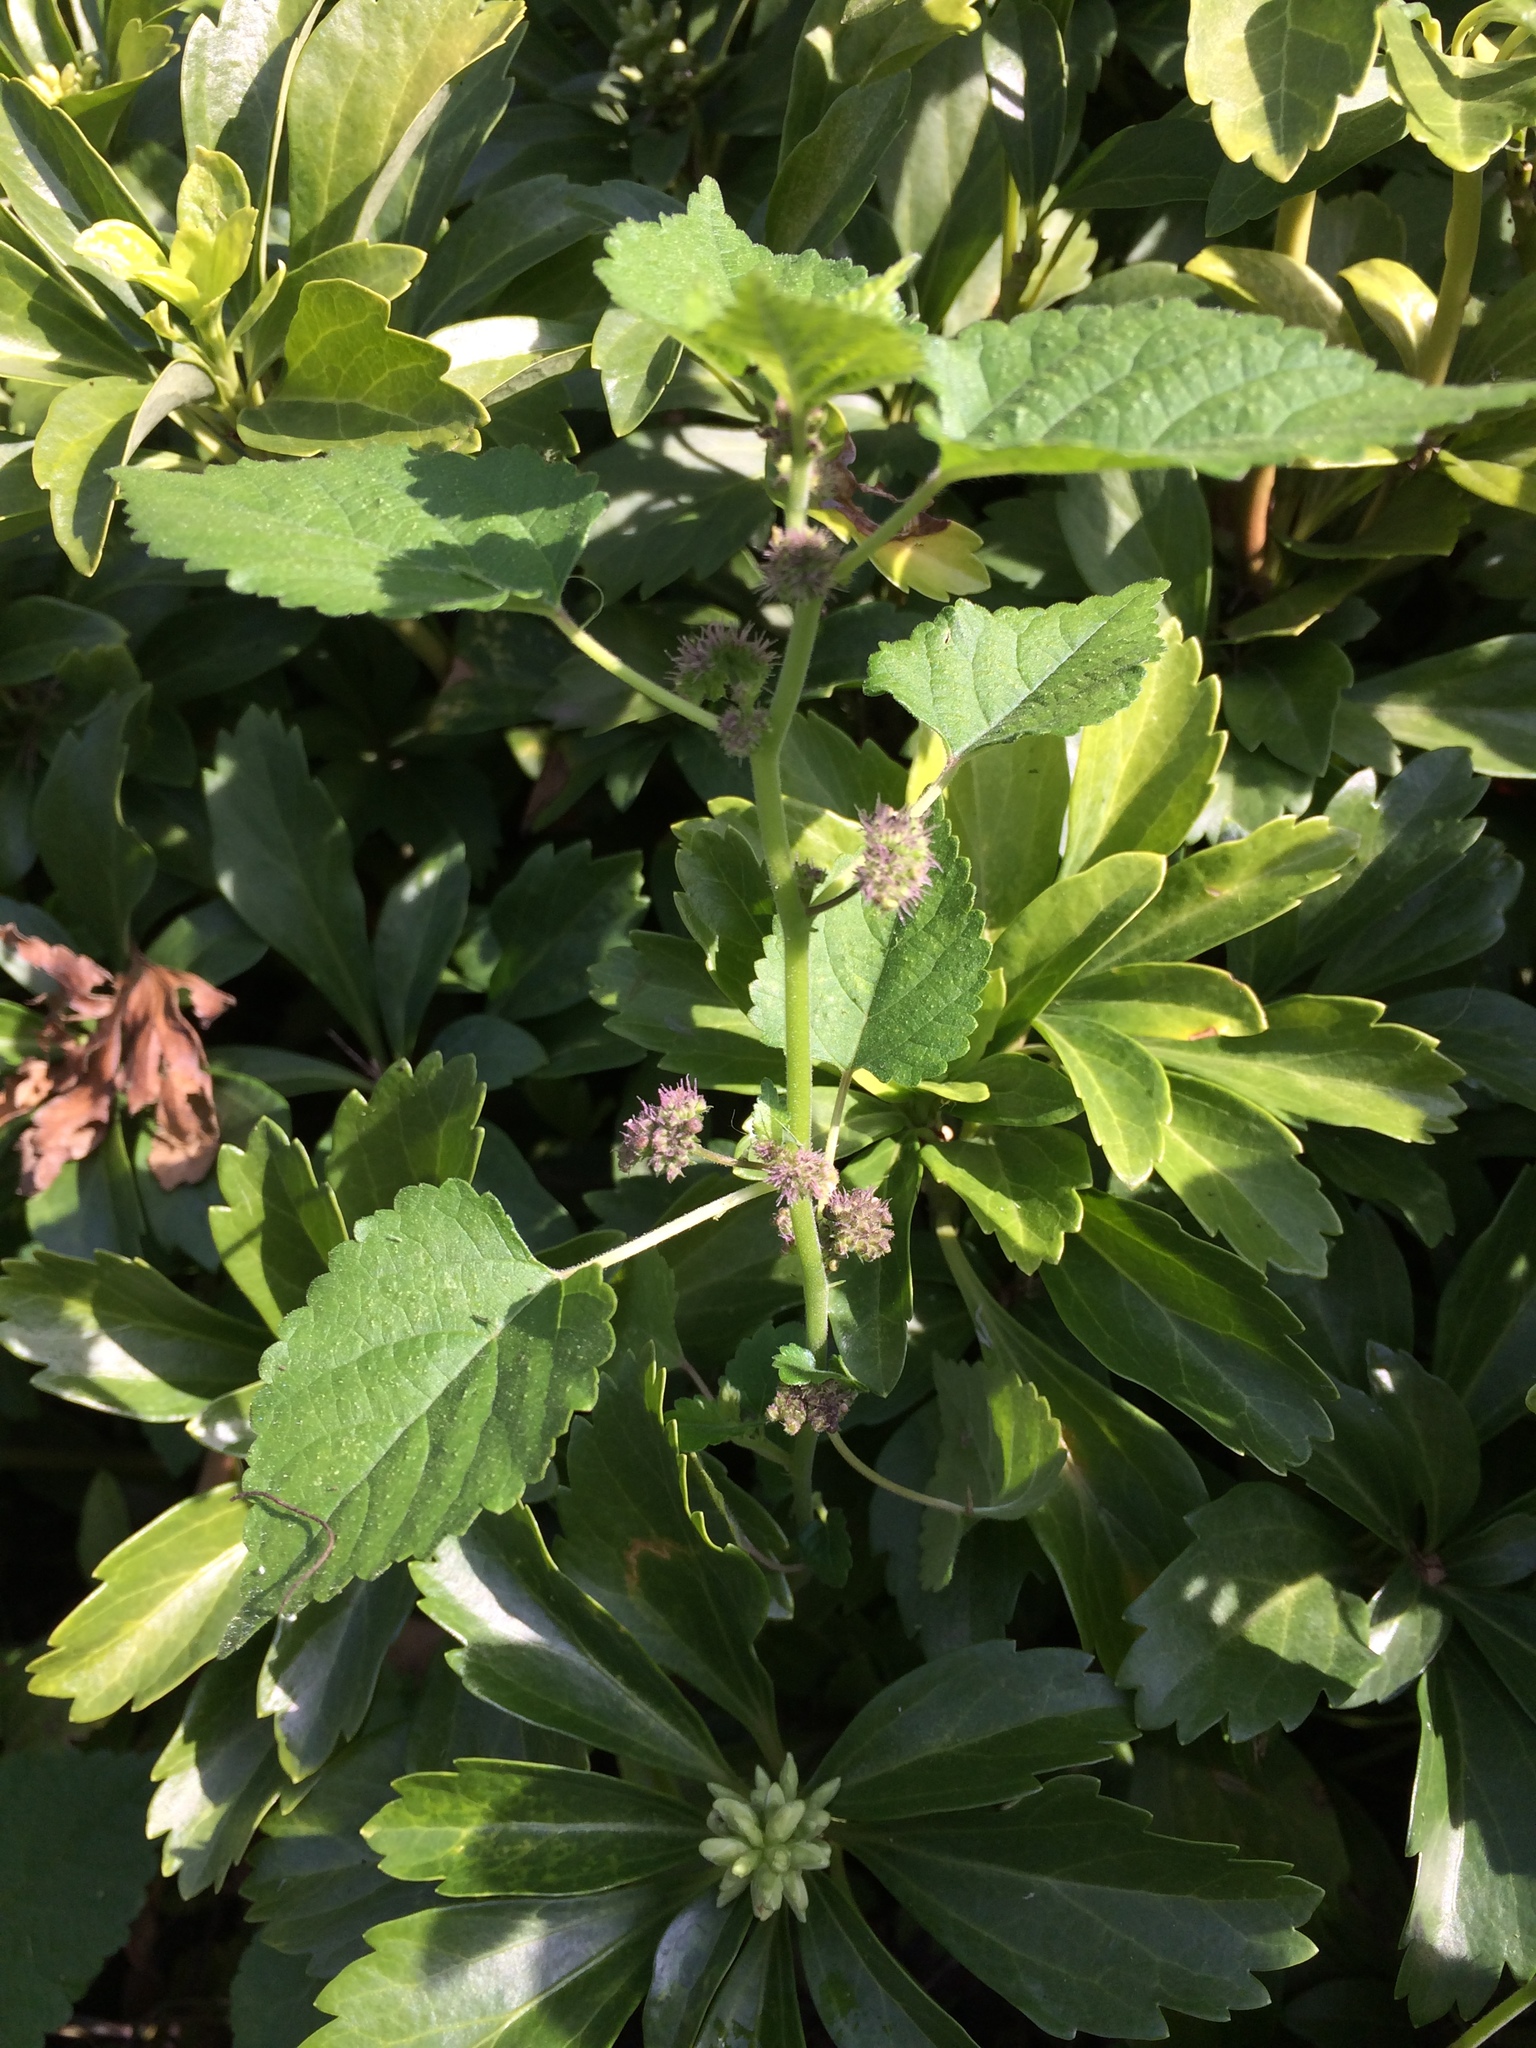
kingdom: Plantae
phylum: Tracheophyta
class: Magnoliopsida
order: Rosales
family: Moraceae
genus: Fatoua
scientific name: Fatoua villosa
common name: Hairy crabweed
